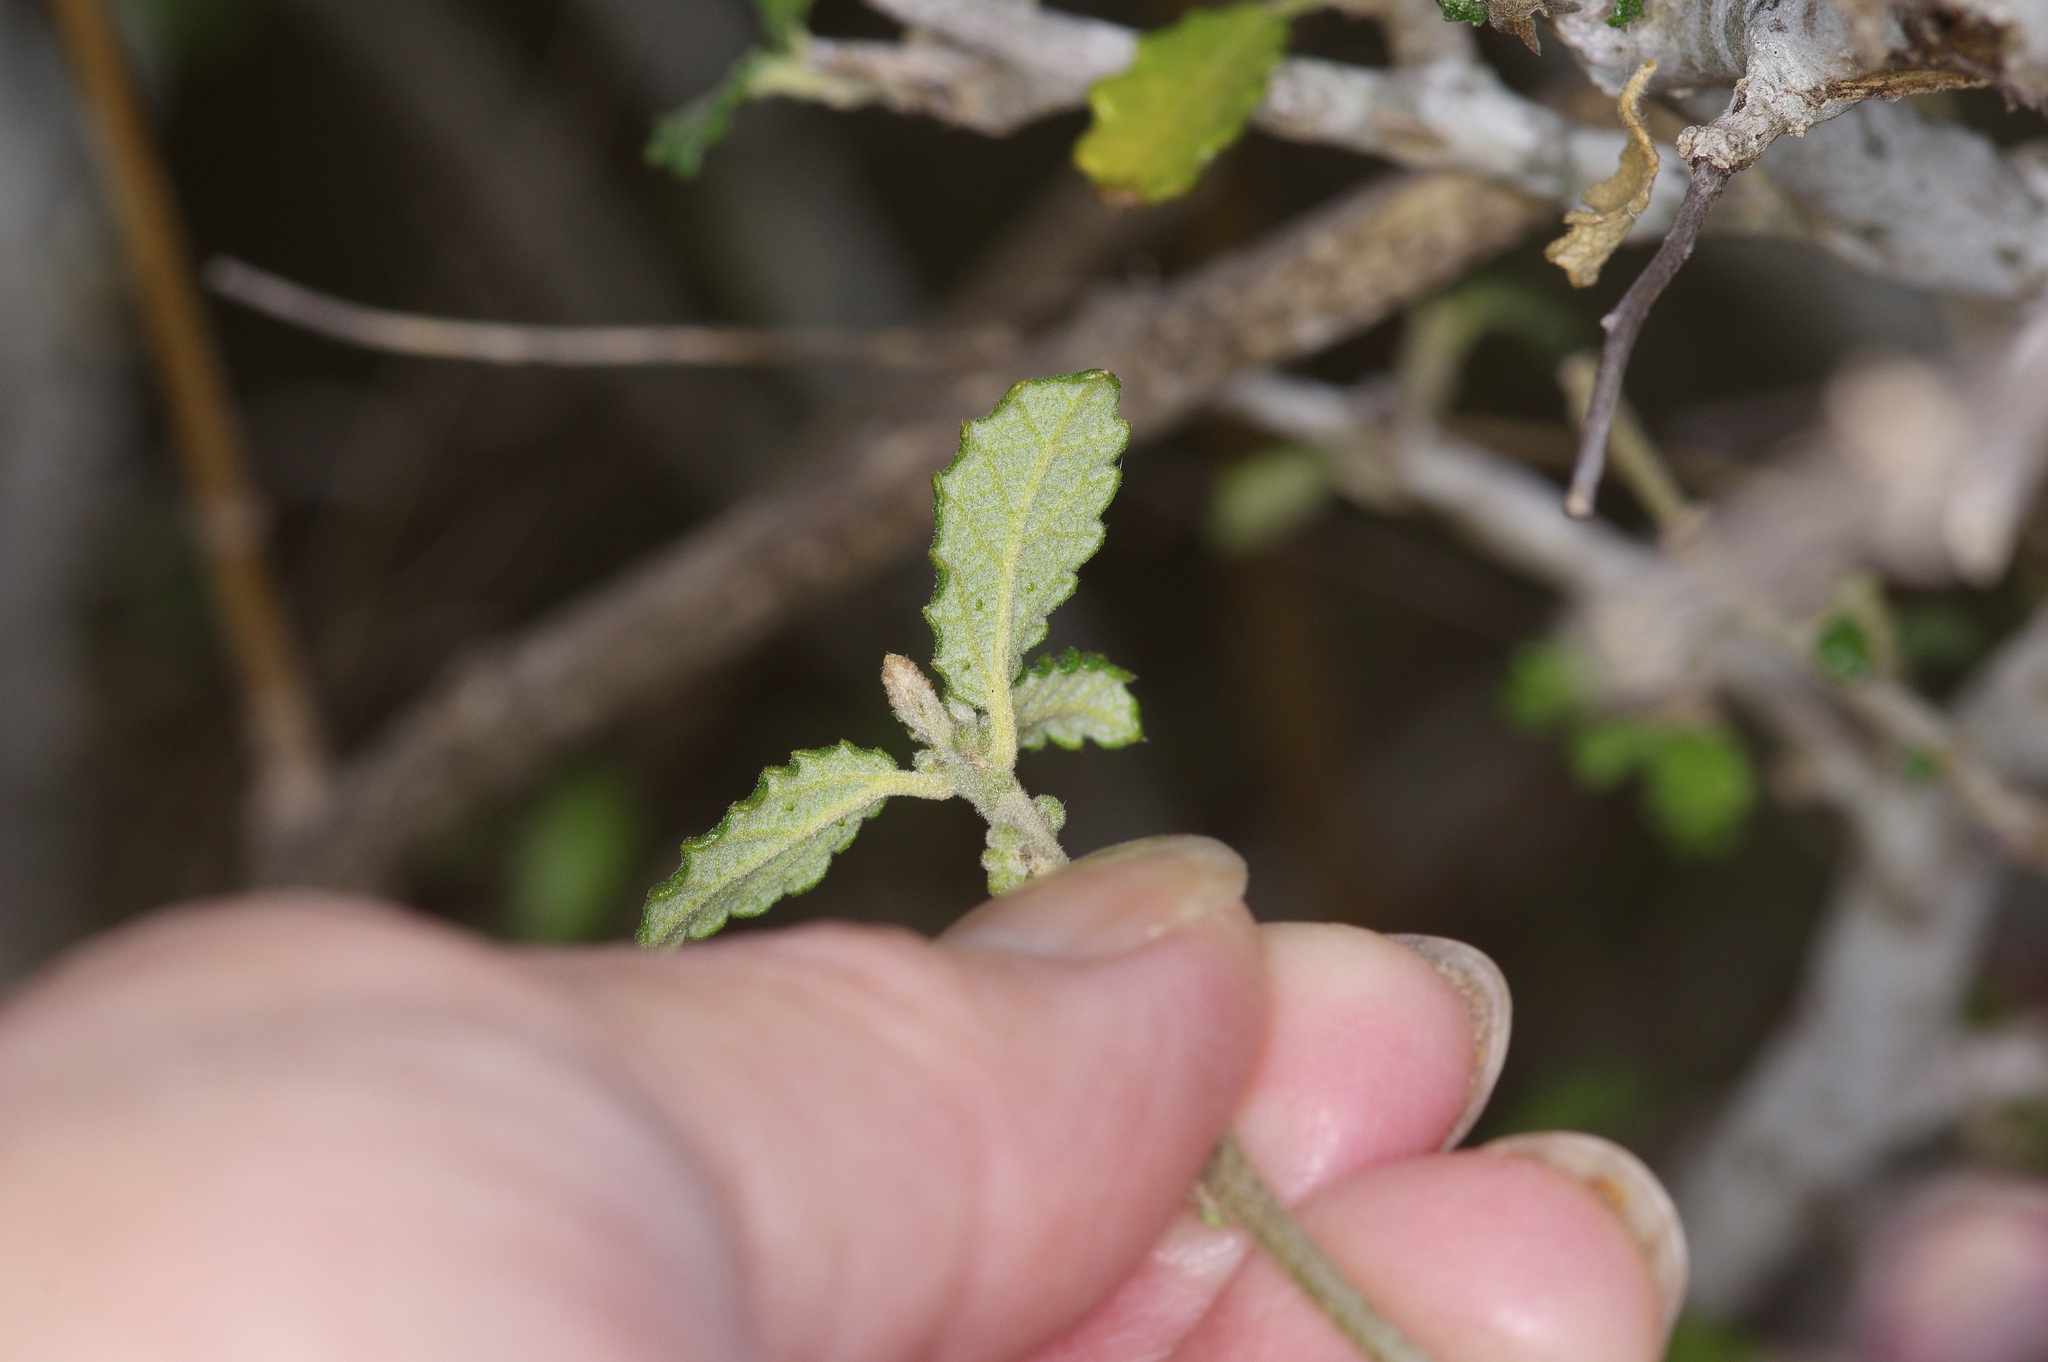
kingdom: Plantae
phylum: Tracheophyta
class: Magnoliopsida
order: Malpighiales
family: Euphorbiaceae
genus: Bernardia
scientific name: Bernardia myricifolia
